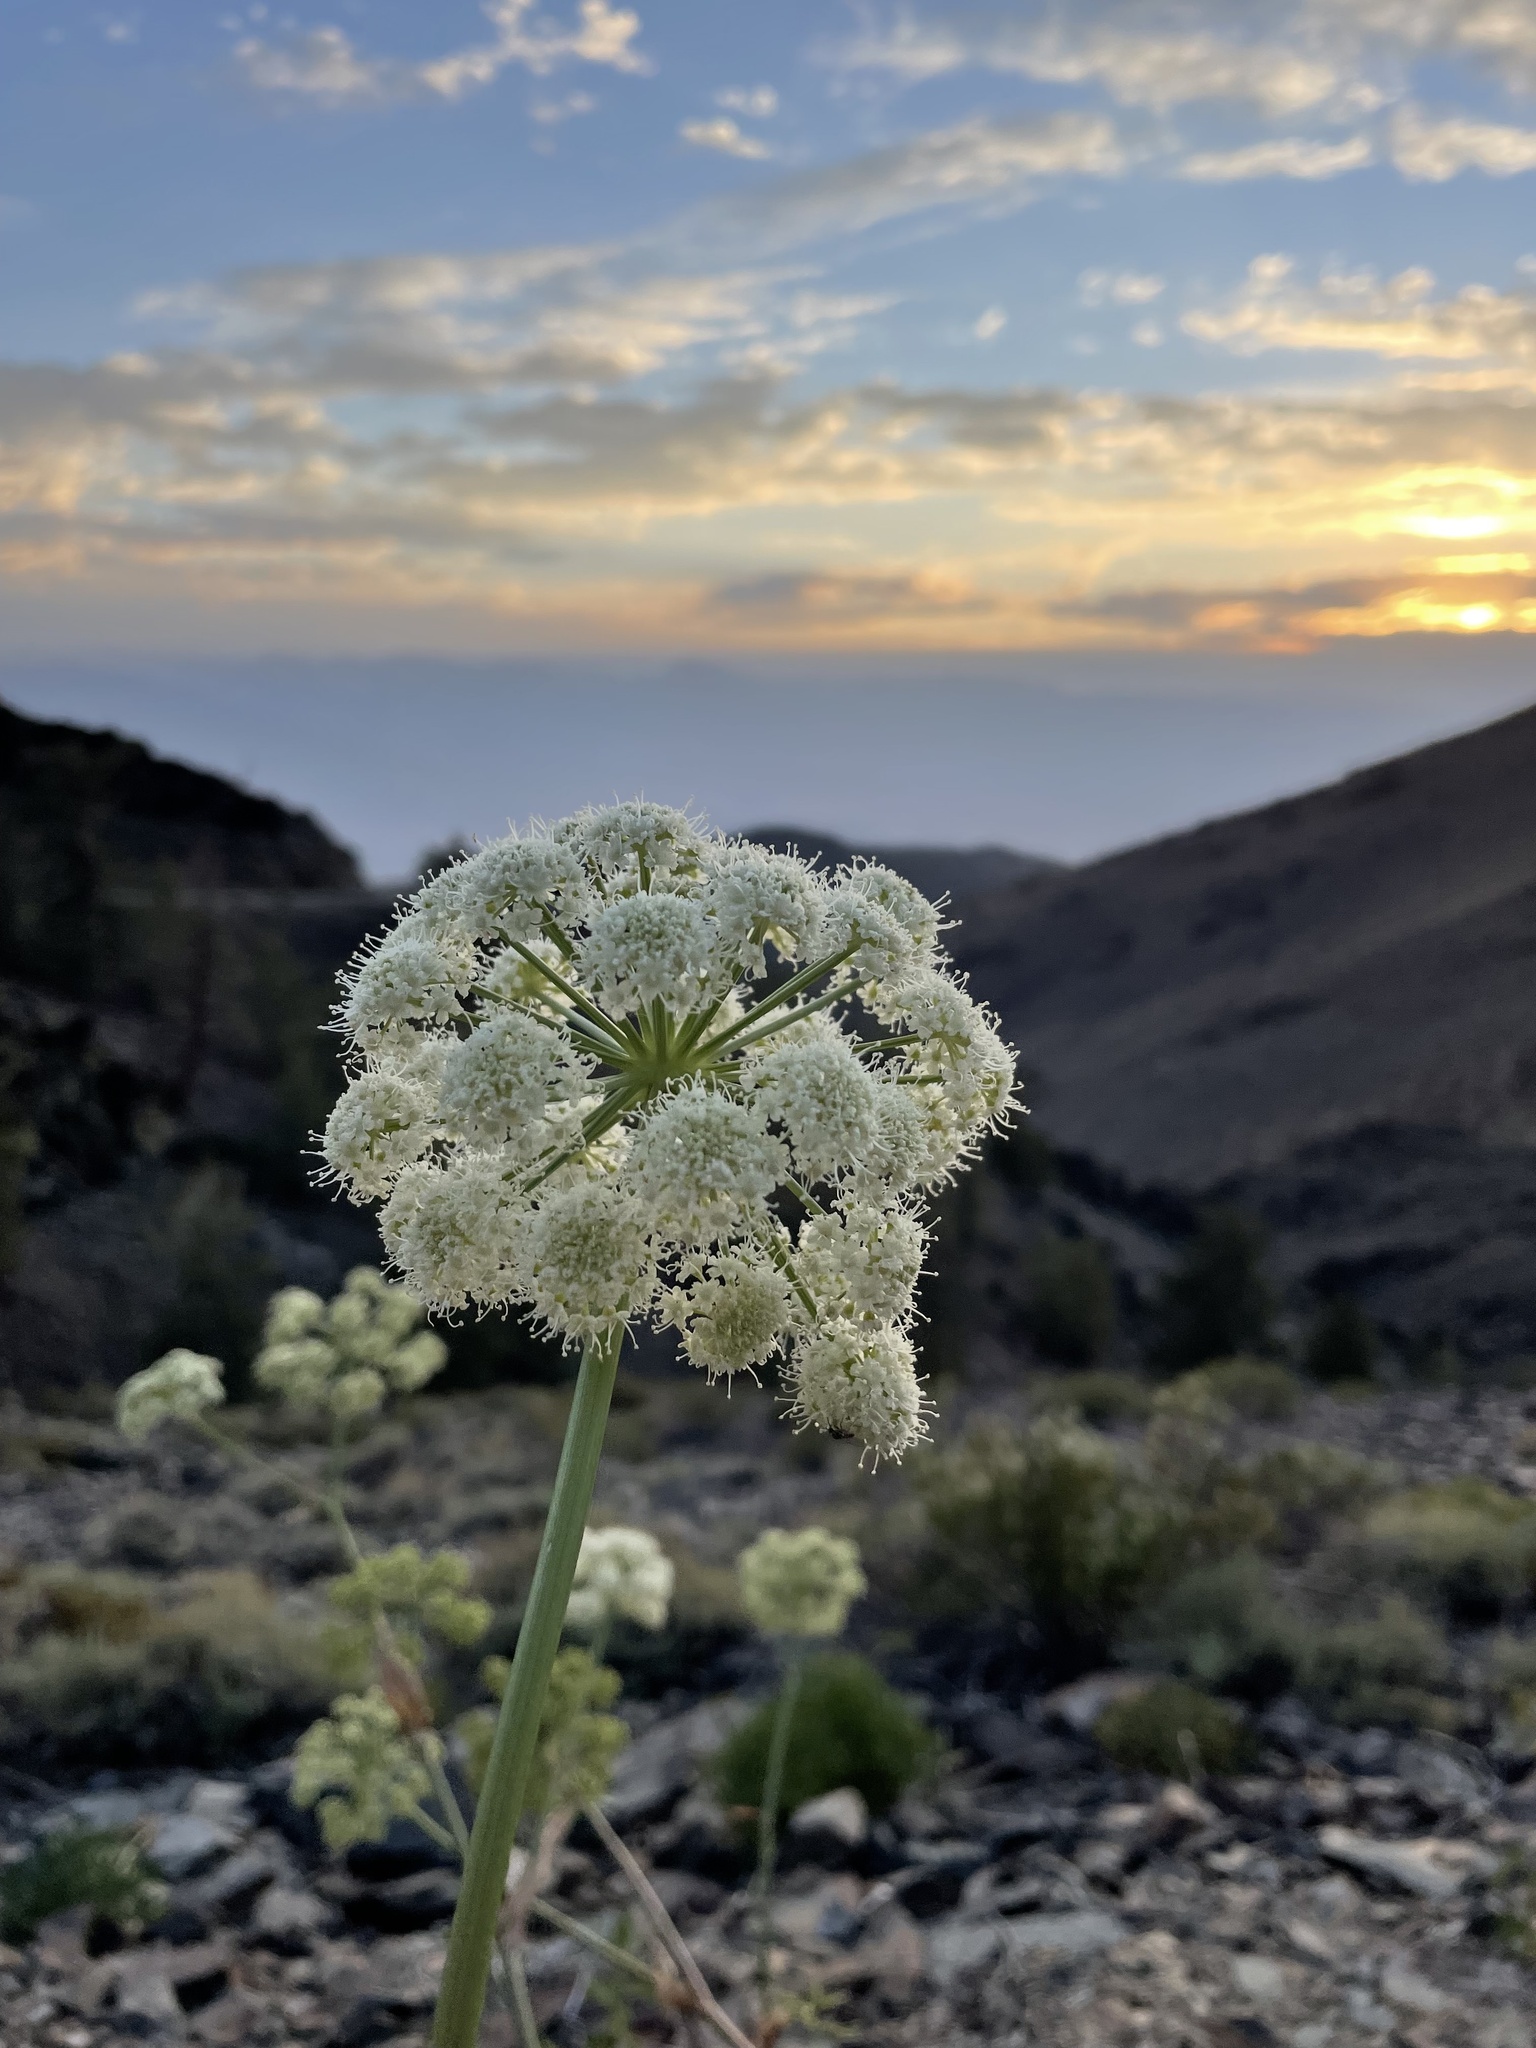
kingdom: Plantae
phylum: Tracheophyta
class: Magnoliopsida
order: Apiales
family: Apiaceae
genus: Angelica
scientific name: Angelica lineariloba
